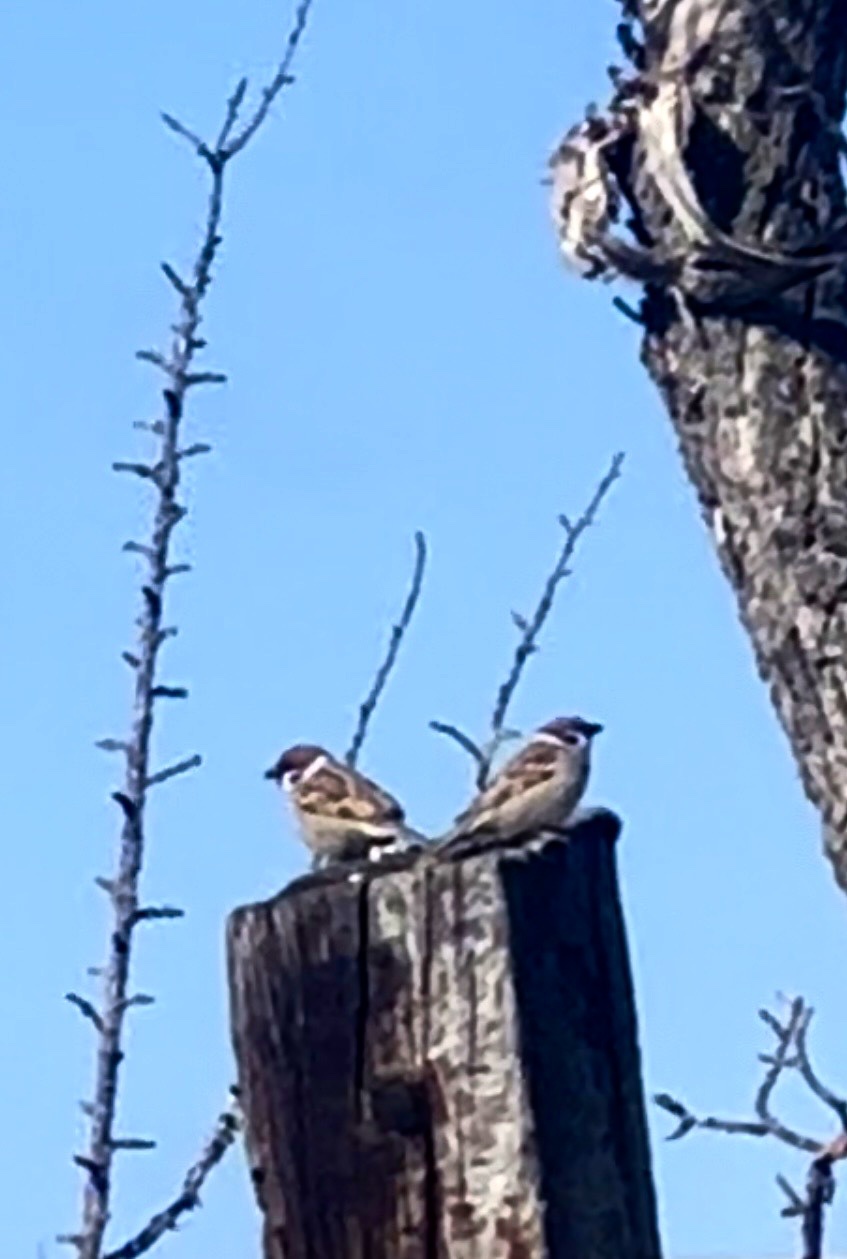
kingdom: Animalia
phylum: Chordata
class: Aves
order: Passeriformes
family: Passeridae
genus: Passer
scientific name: Passer montanus
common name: Eurasian tree sparrow
